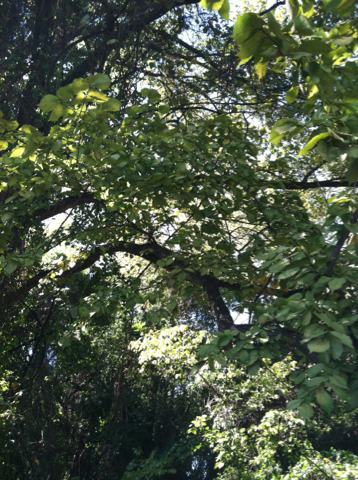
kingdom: Plantae
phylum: Tracheophyta
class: Magnoliopsida
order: Rosales
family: Ulmaceae
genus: Ulmus
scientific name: Ulmus americana
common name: American elm
